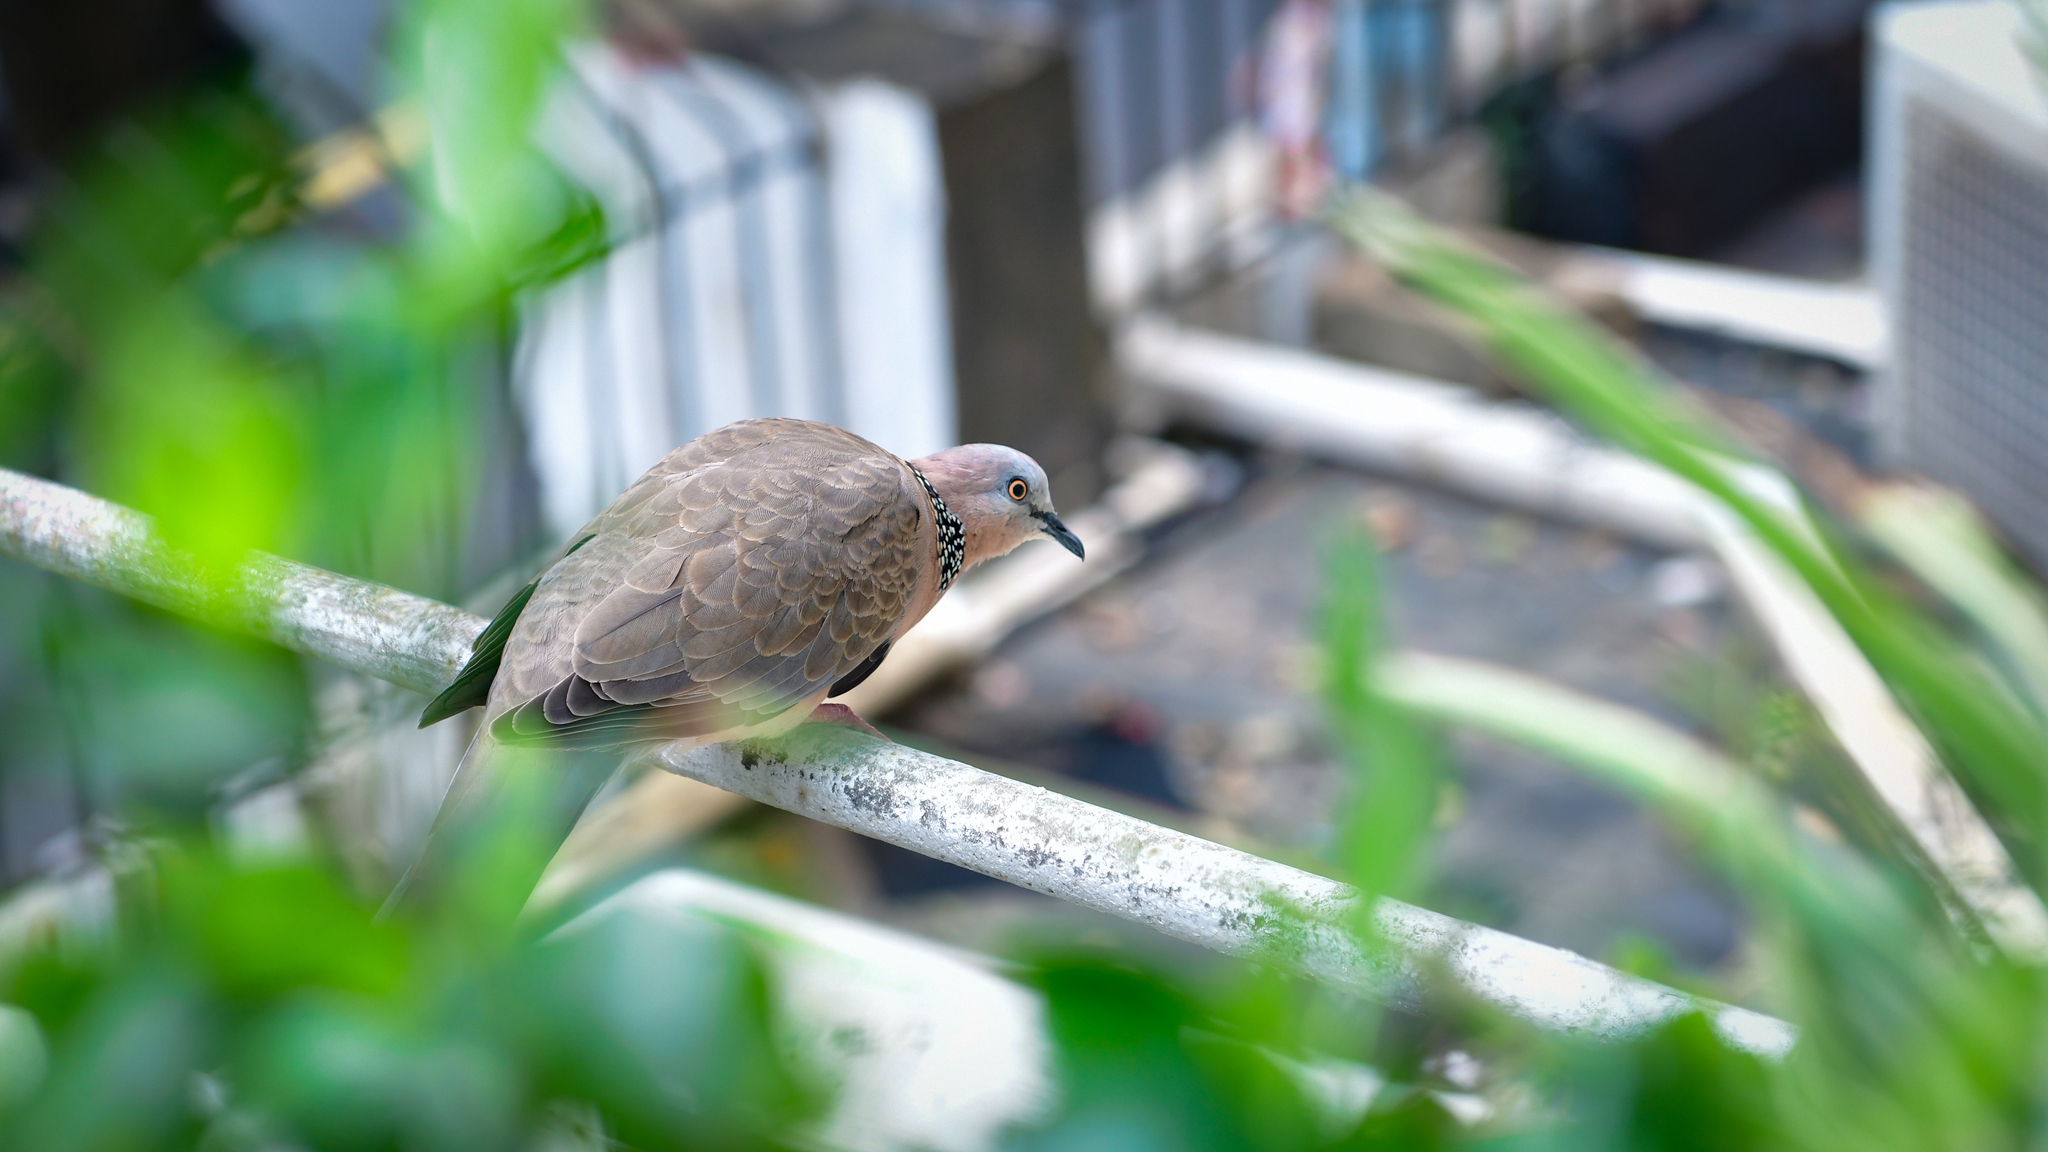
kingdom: Animalia
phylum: Chordata
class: Aves
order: Columbiformes
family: Columbidae
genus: Spilopelia
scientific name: Spilopelia chinensis
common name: Spotted dove
